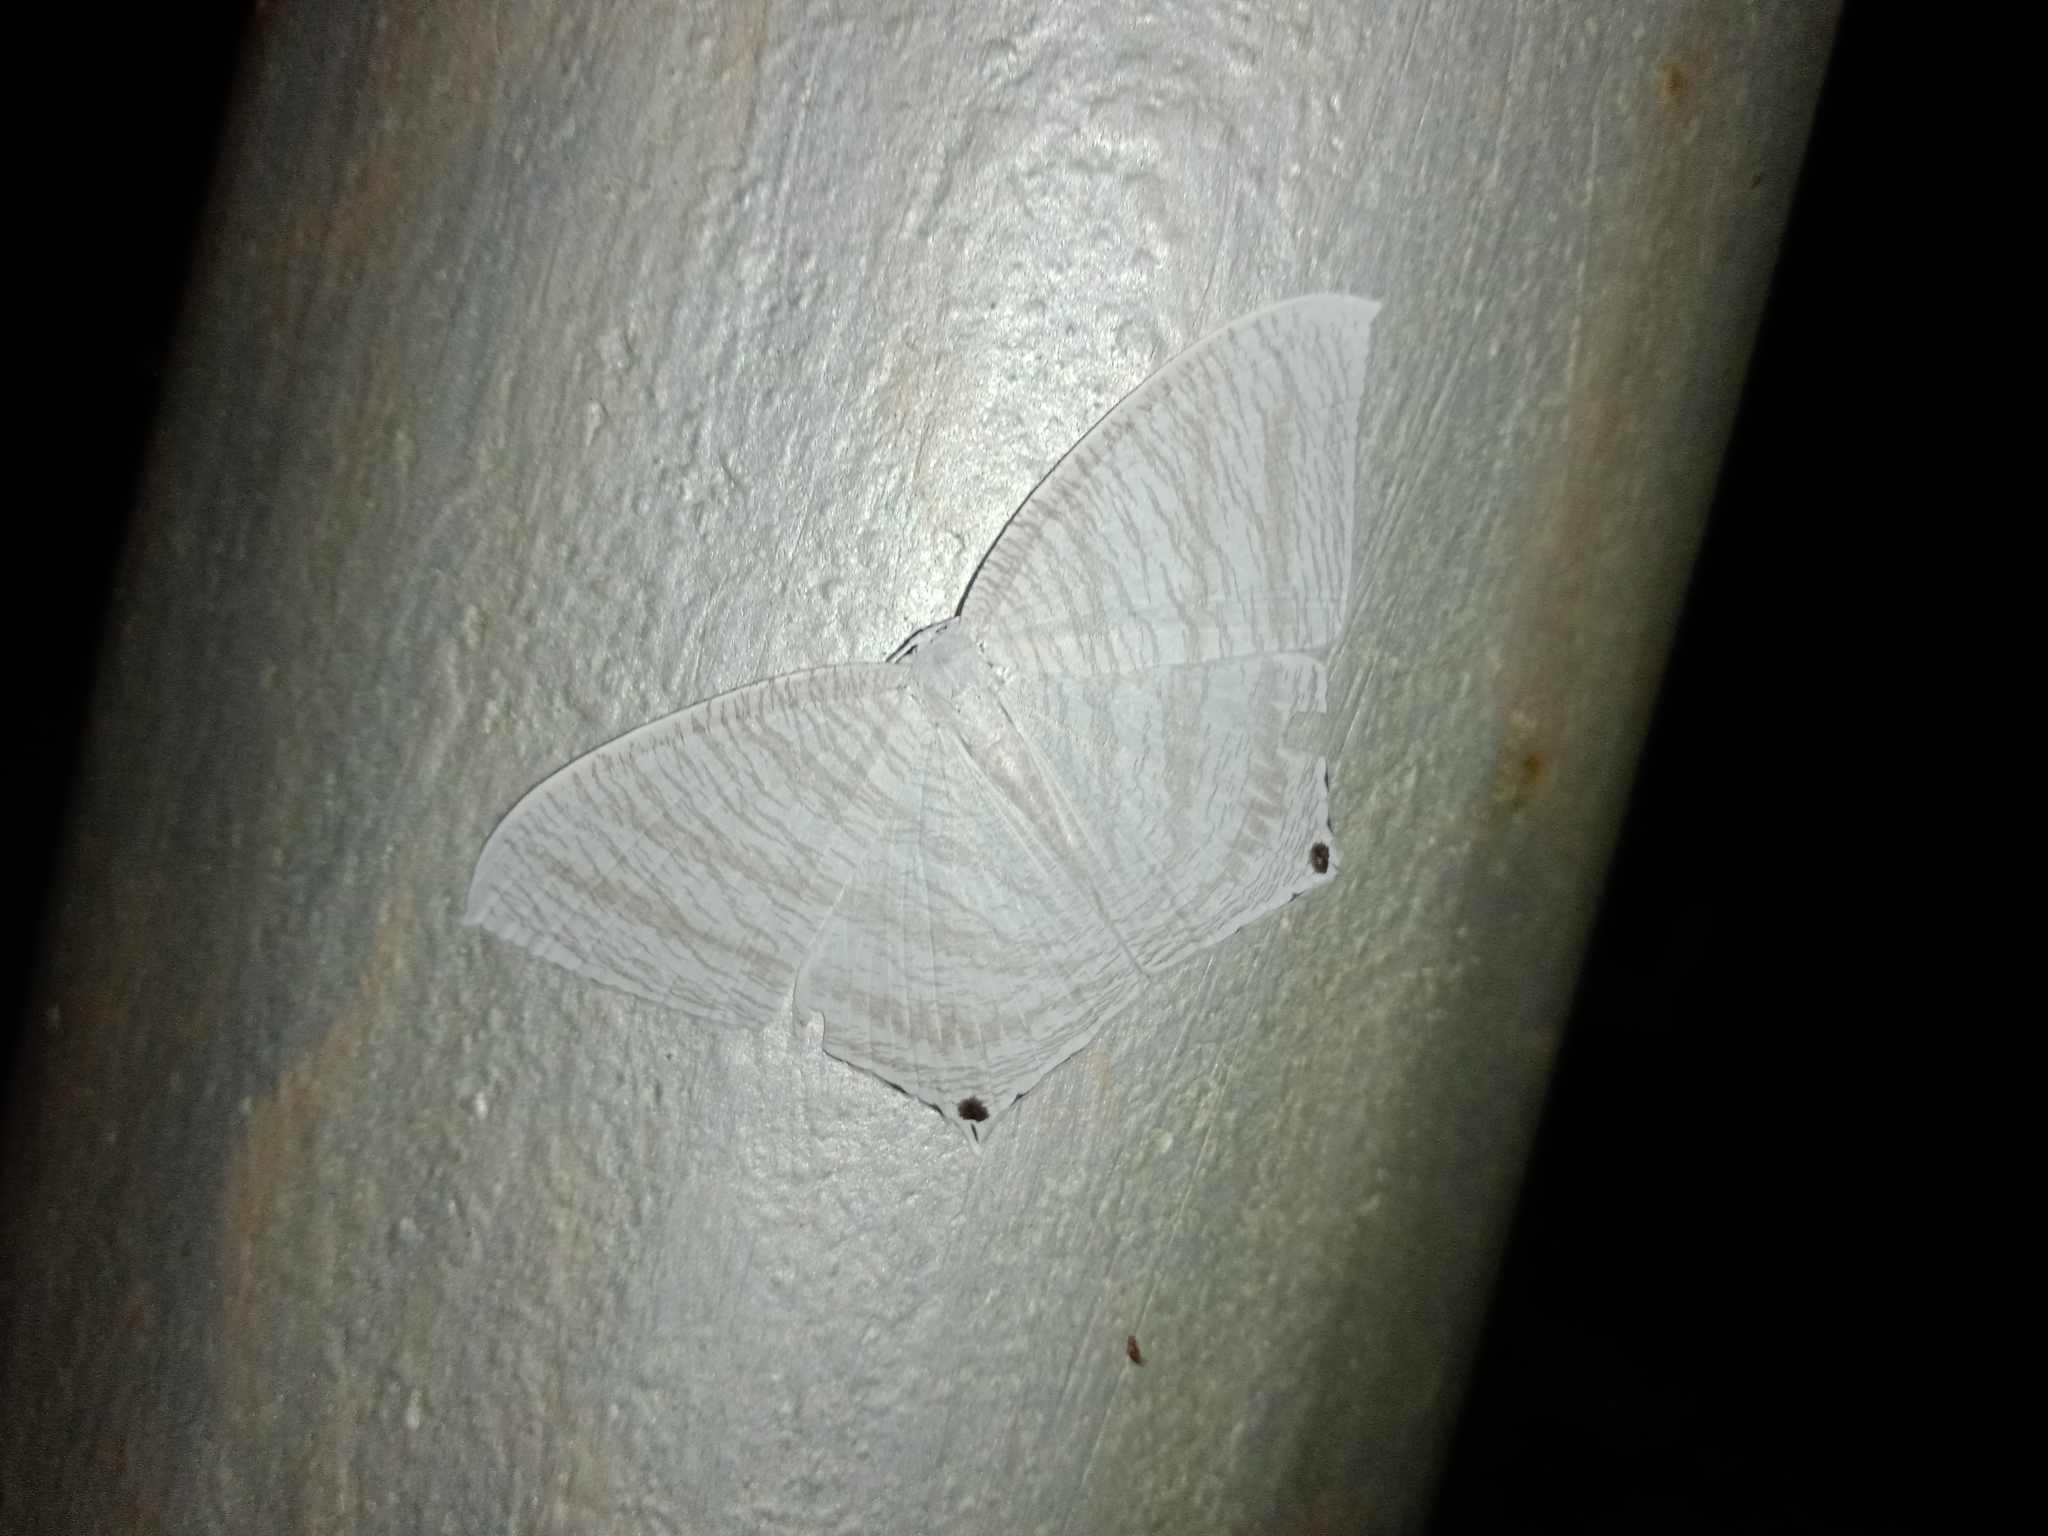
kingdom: Animalia
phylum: Arthropoda
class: Insecta
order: Lepidoptera
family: Uraniidae
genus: Micronia
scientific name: Micronia aculeata
